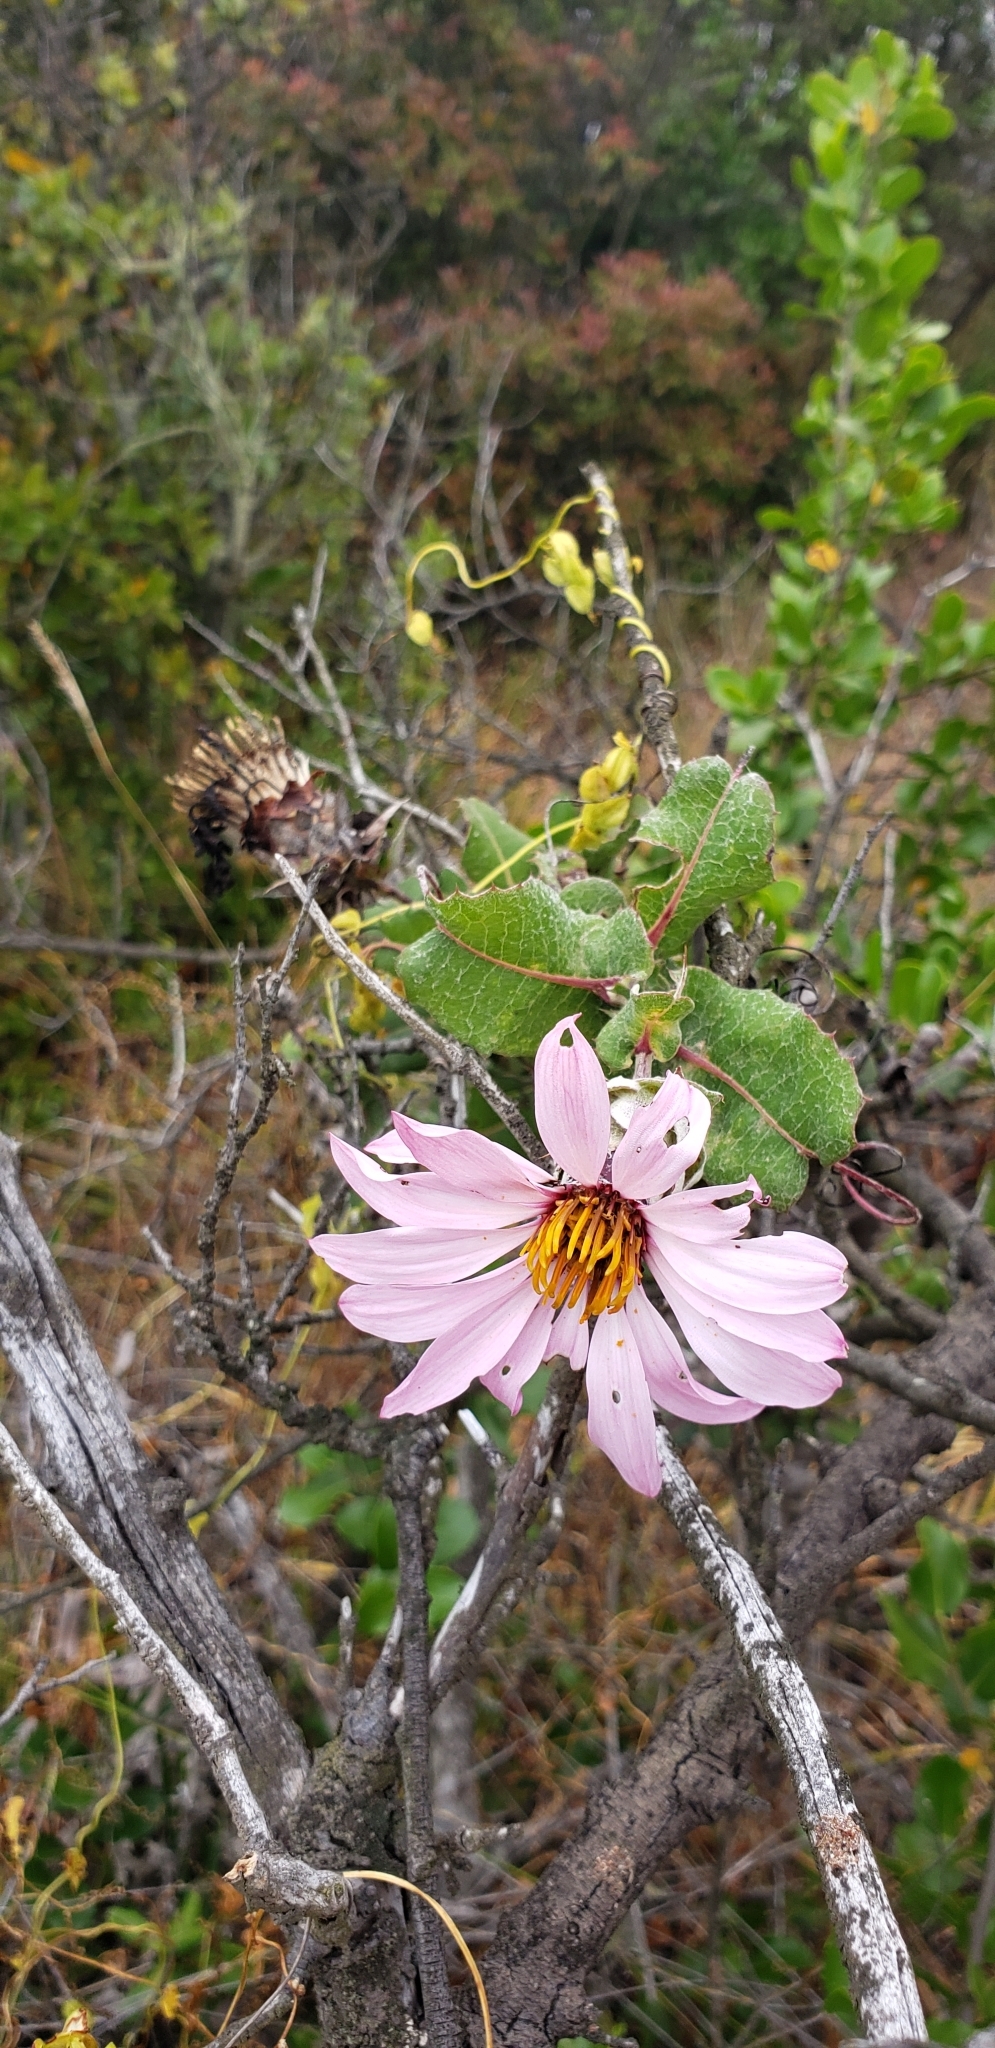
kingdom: Plantae
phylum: Tracheophyta
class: Magnoliopsida
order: Asterales
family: Asteraceae
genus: Mutisia
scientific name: Mutisia latifolia
